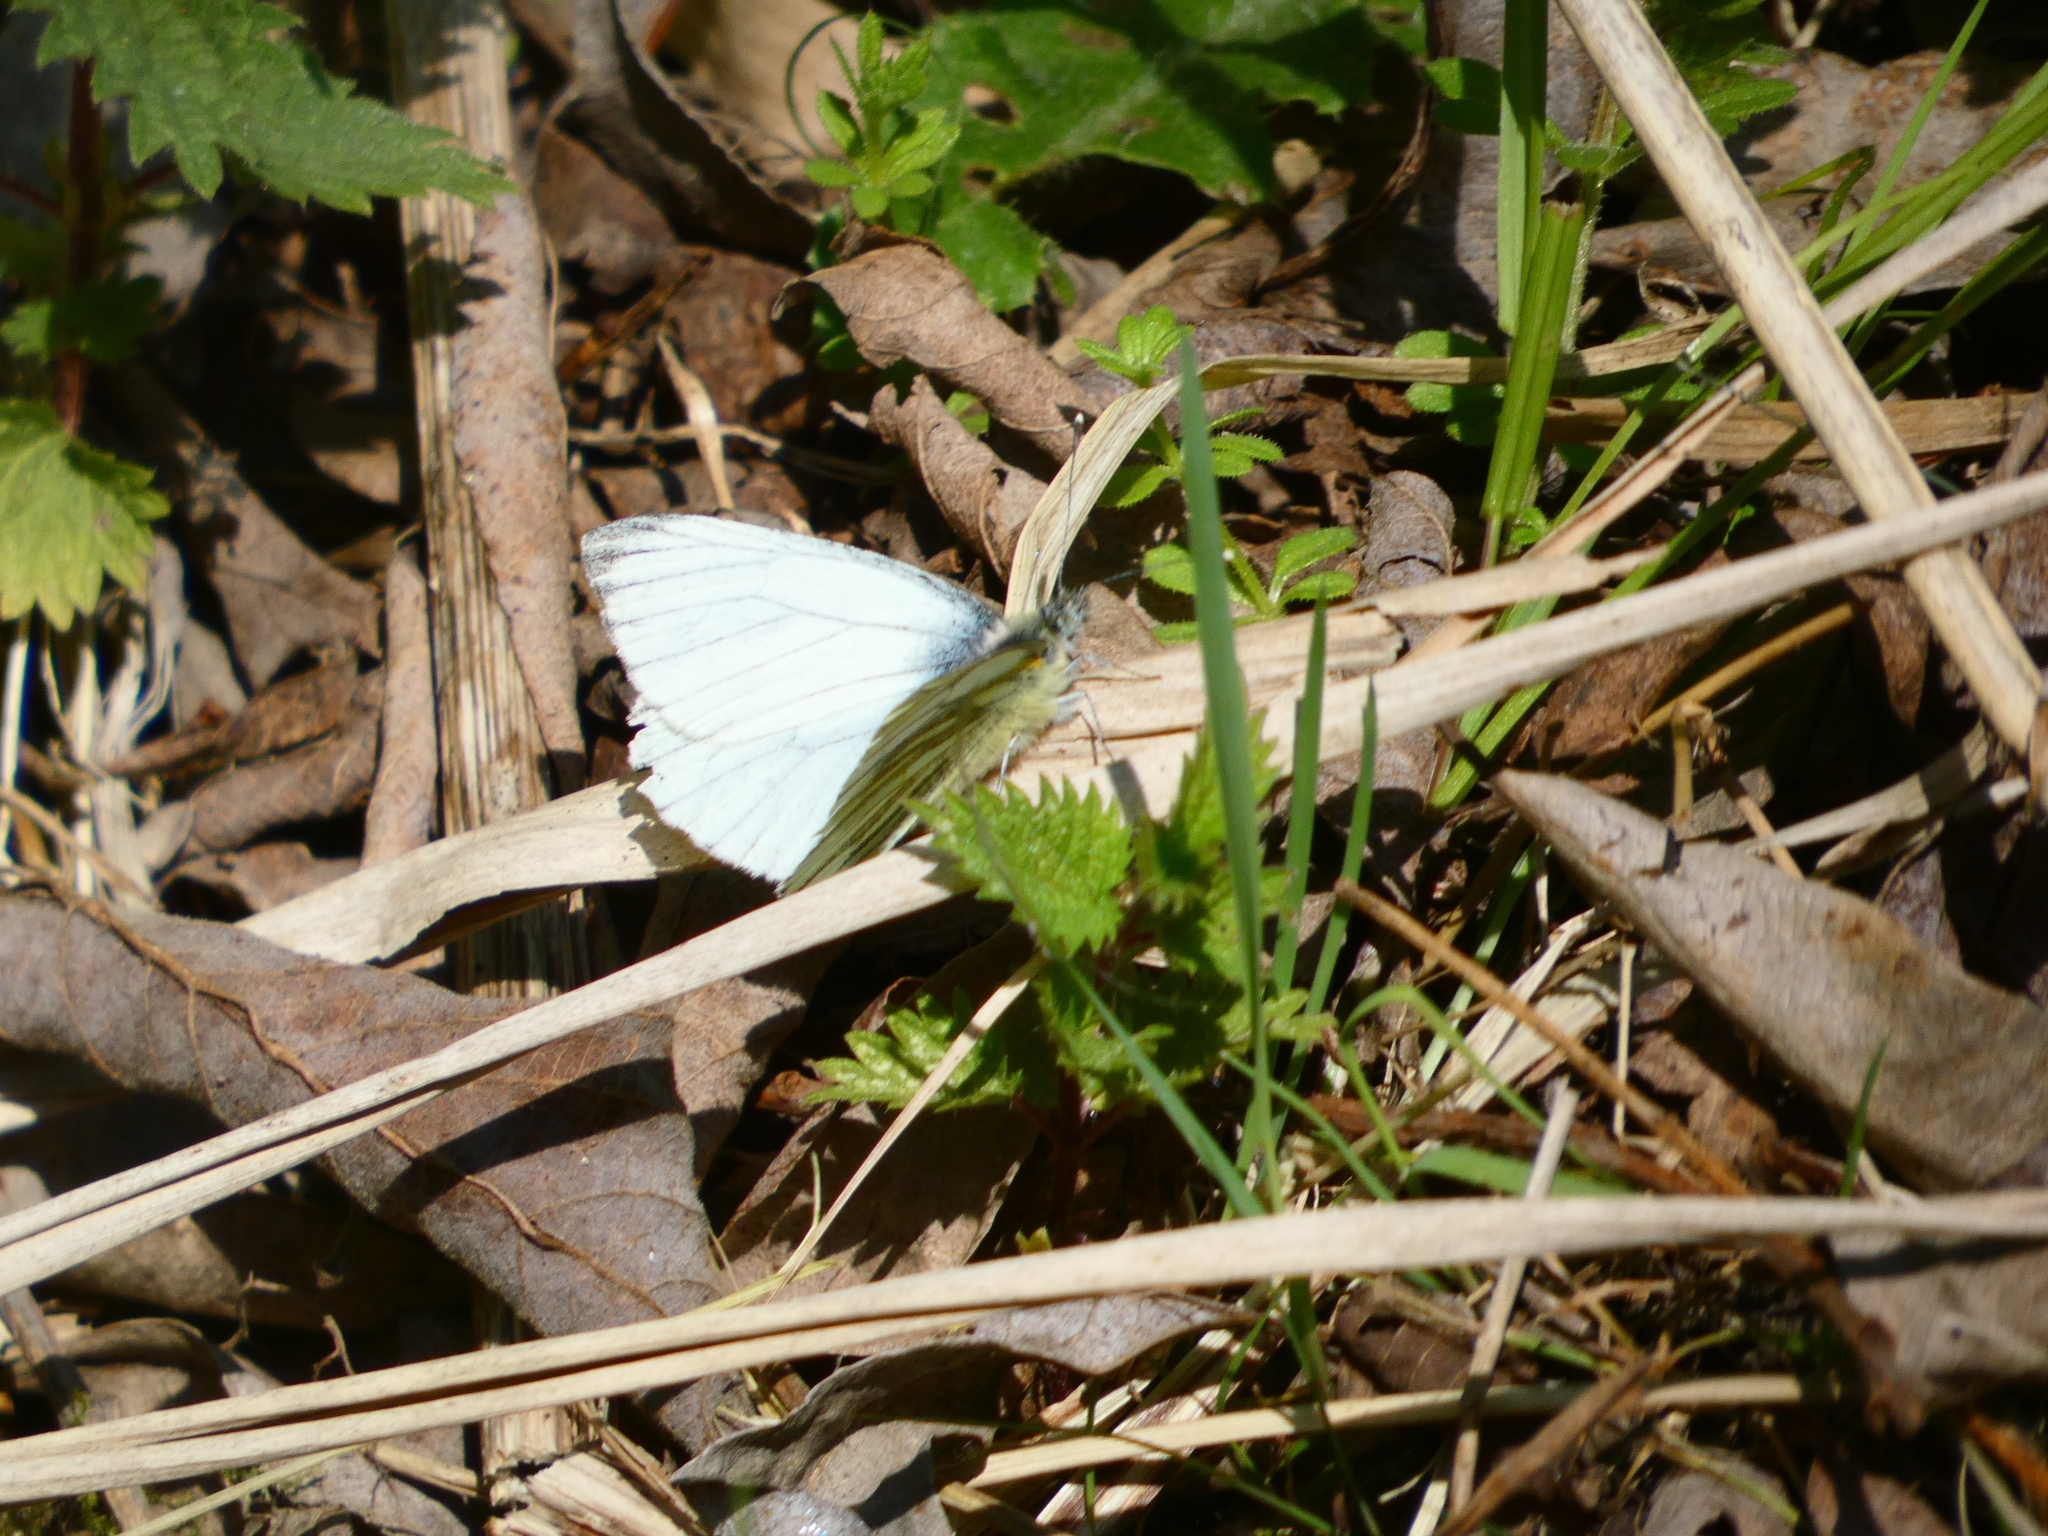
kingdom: Animalia
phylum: Arthropoda
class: Insecta
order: Lepidoptera
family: Pieridae
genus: Pieris
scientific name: Pieris napi
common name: Green-veined white
